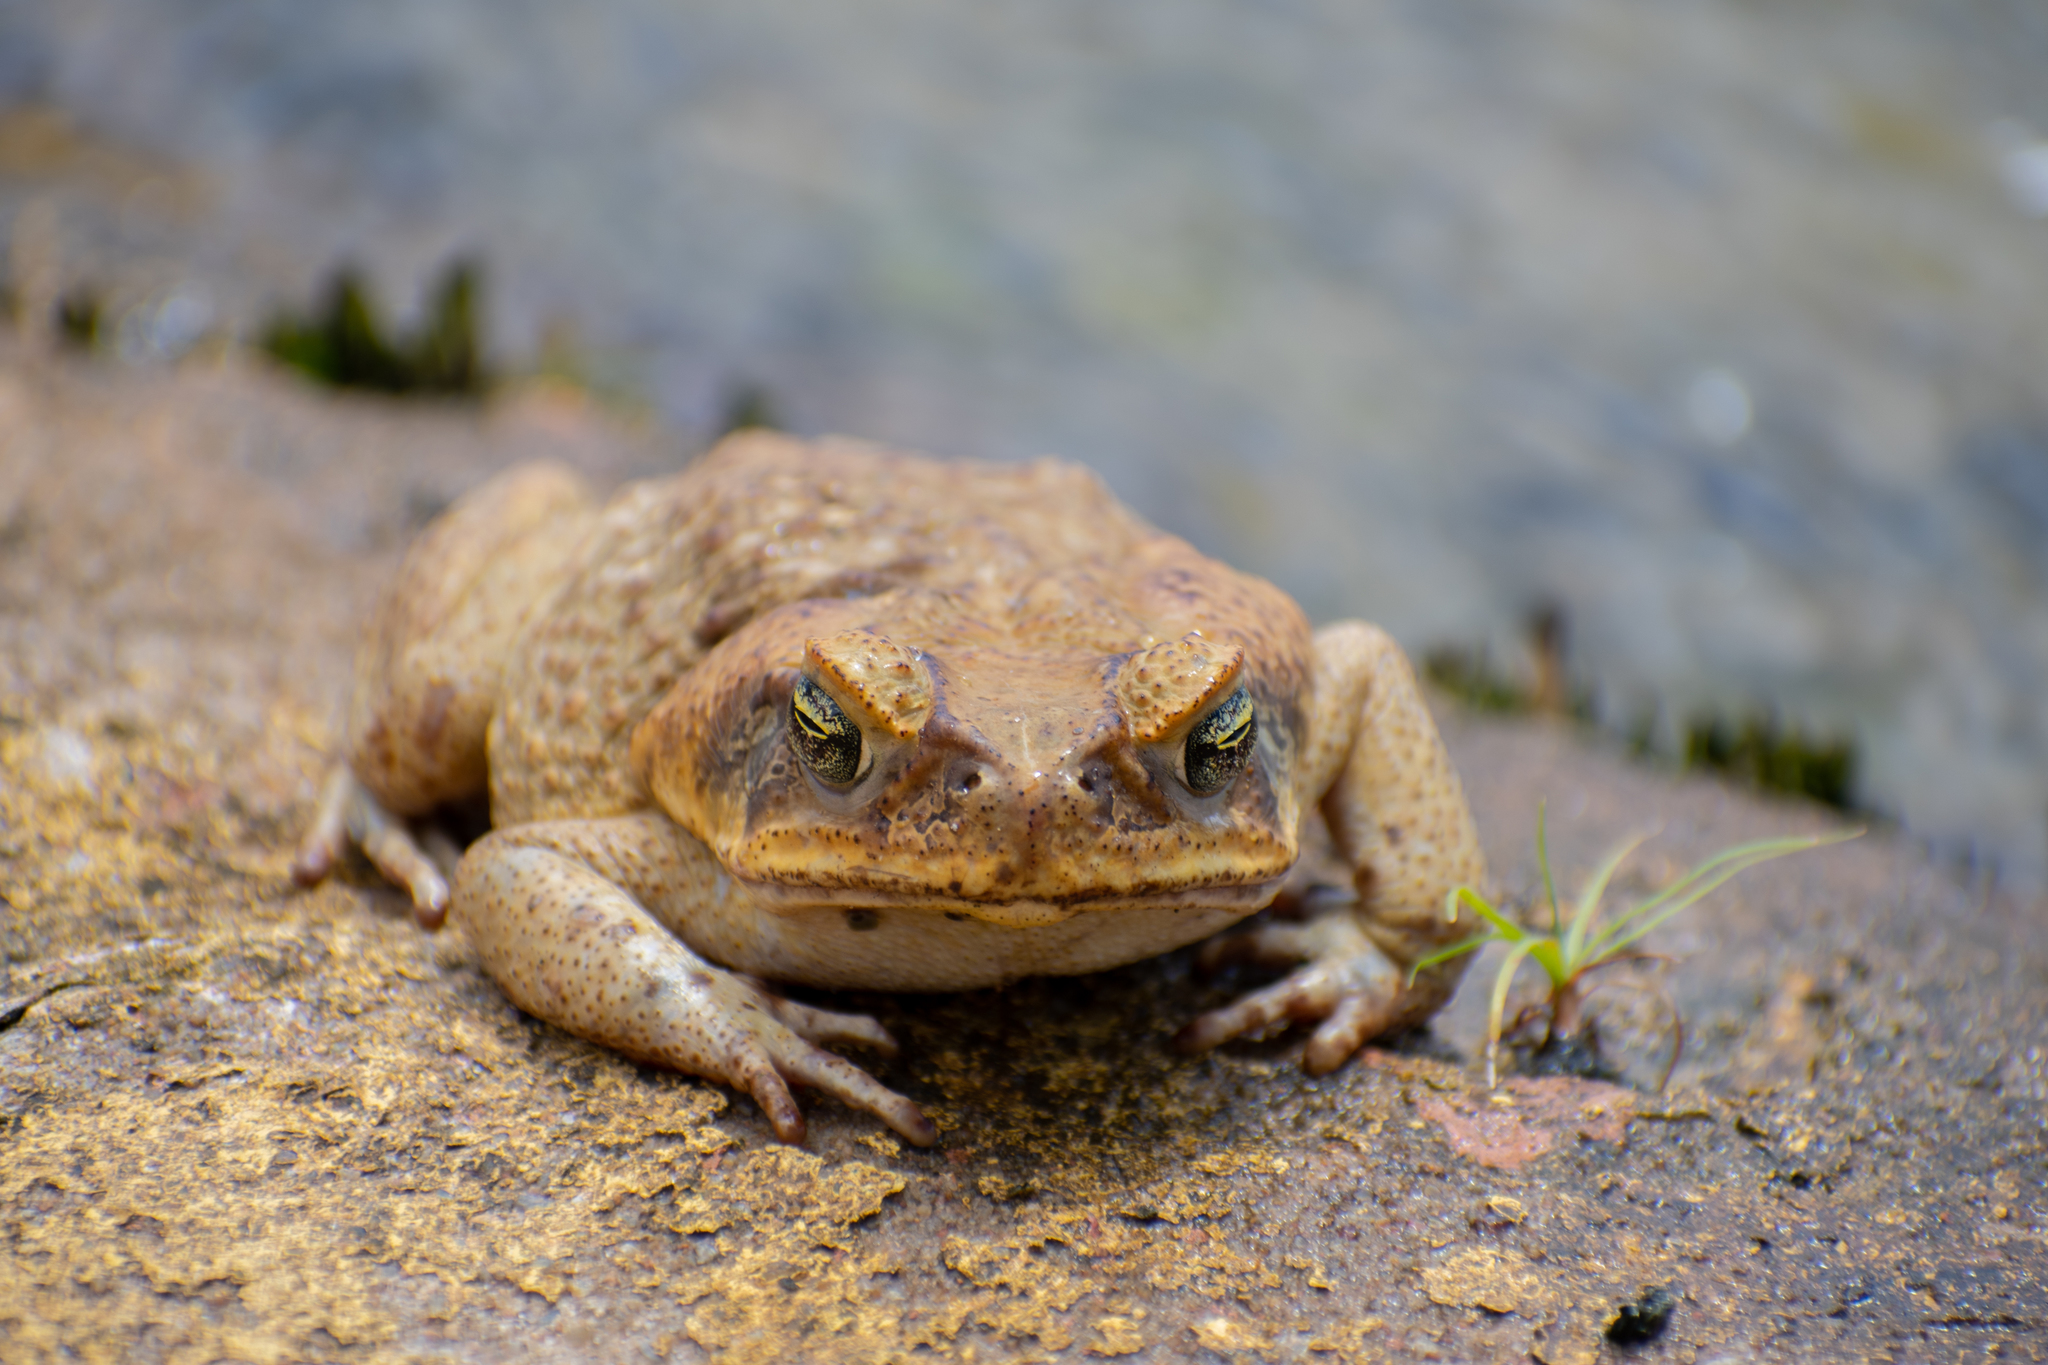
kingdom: Animalia
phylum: Chordata
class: Amphibia
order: Anura
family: Bufonidae
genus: Rhinella
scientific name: Rhinella marina
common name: Cane toad
